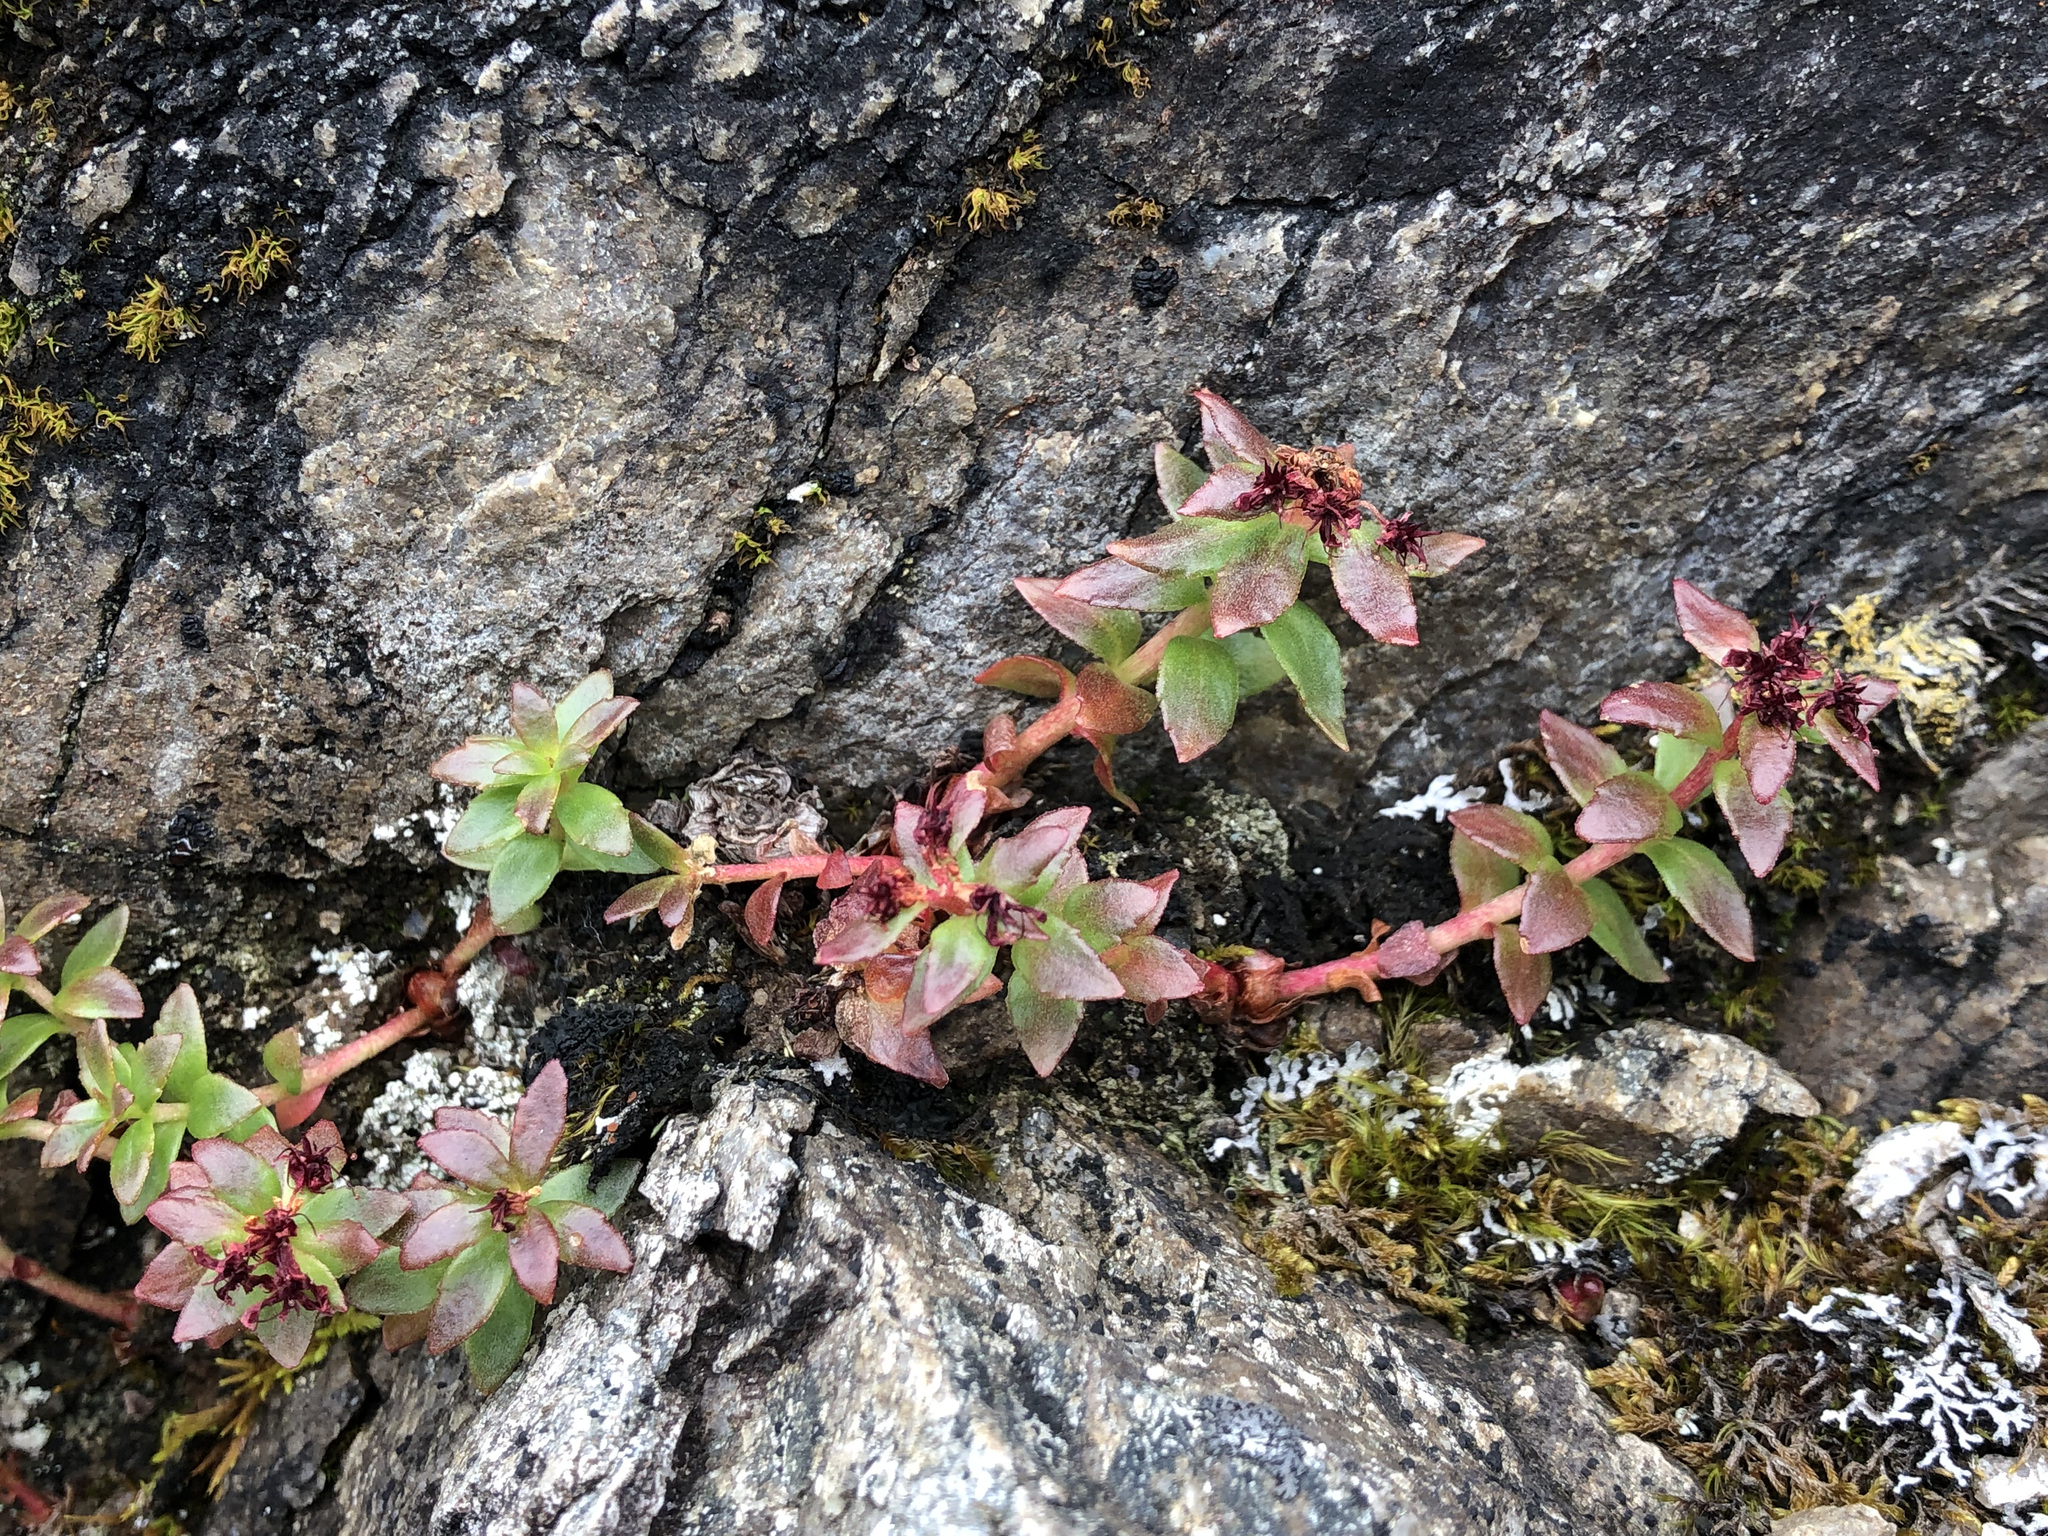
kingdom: Plantae
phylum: Tracheophyta
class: Magnoliopsida
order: Saxifragales
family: Crassulaceae
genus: Rhodiola
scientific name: Rhodiola integrifolia
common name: Western roseroot
